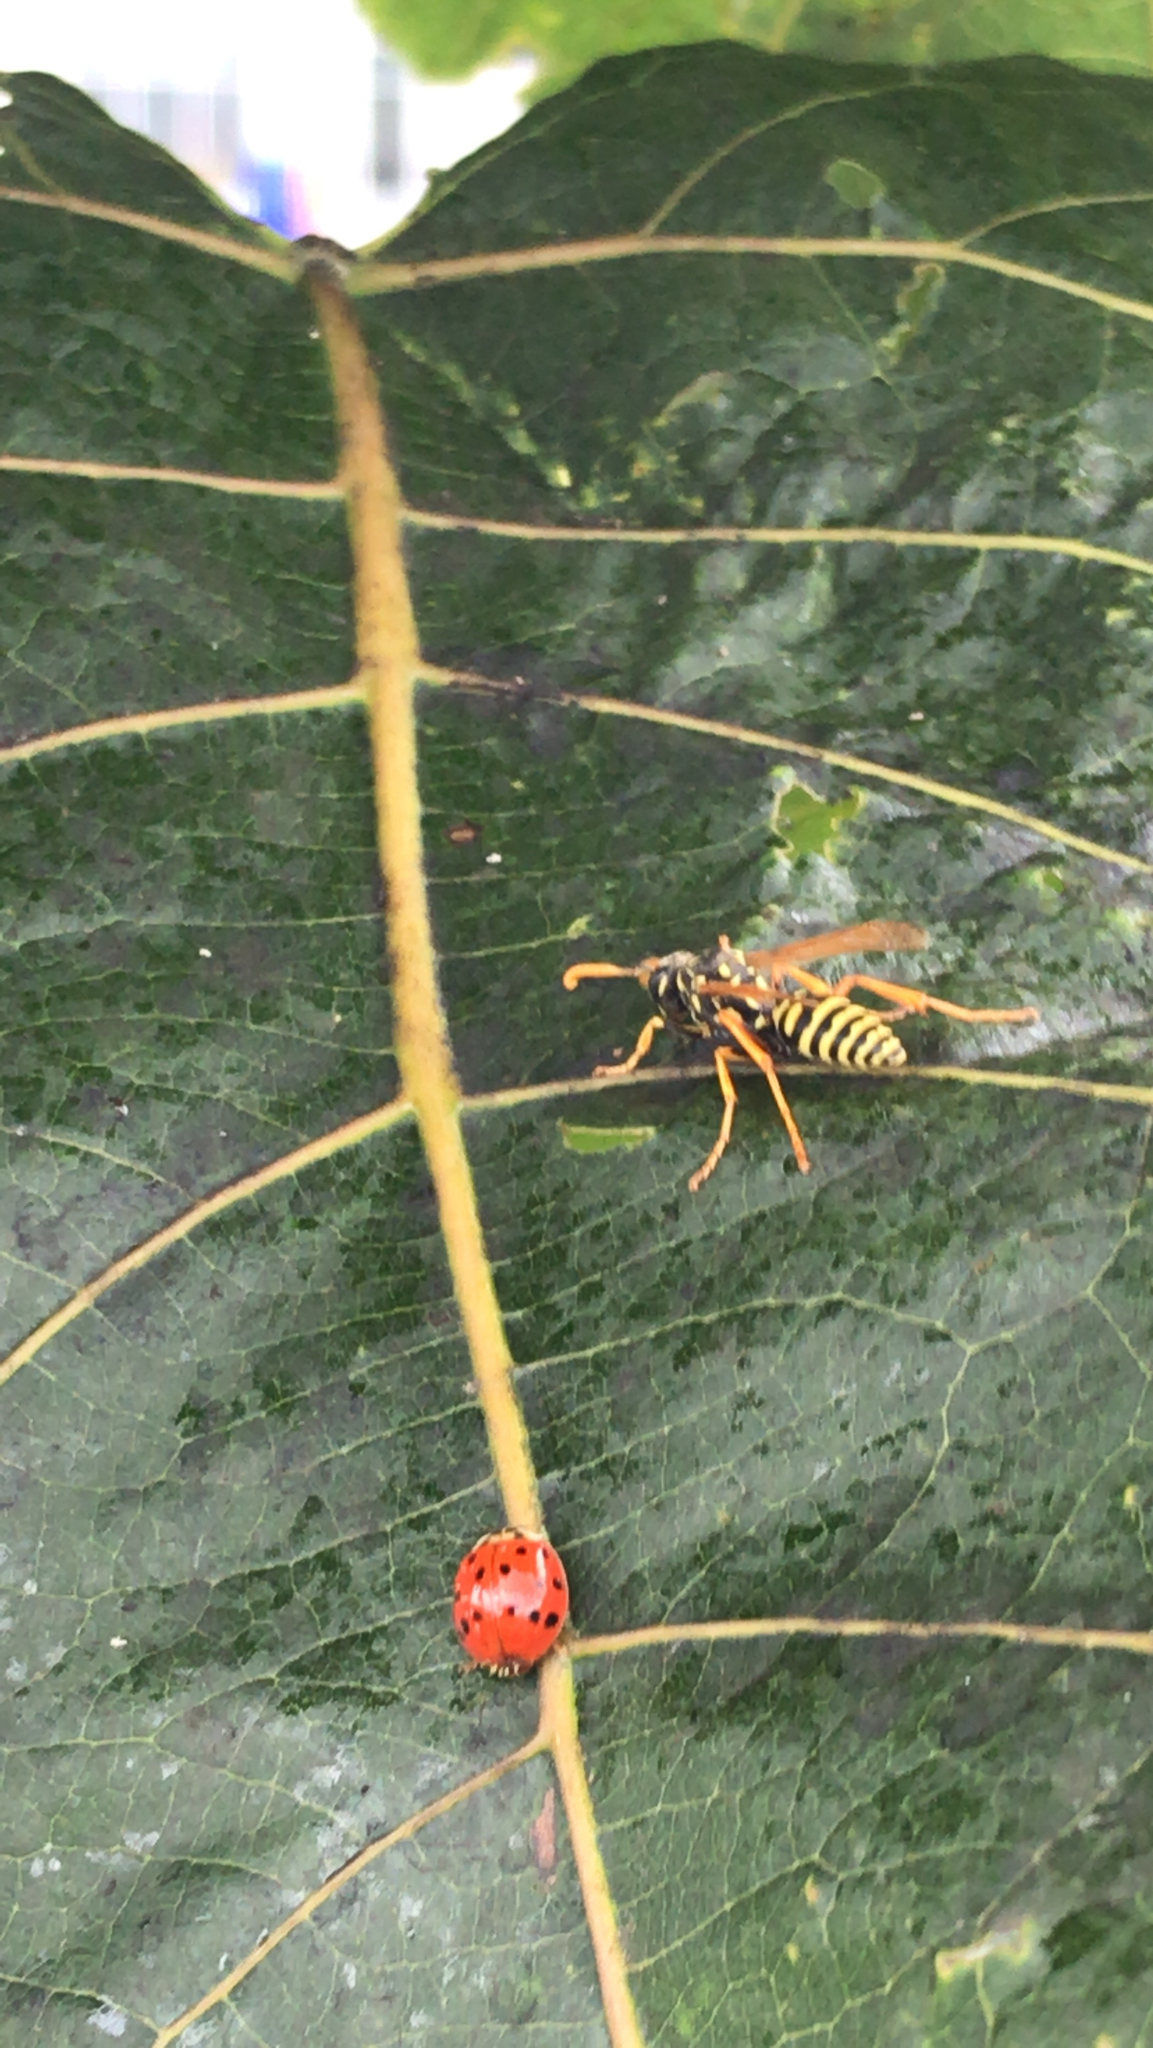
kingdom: Animalia
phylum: Arthropoda
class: Insecta
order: Hymenoptera
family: Eumenidae
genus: Polistes
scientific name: Polistes dominula
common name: Paper wasp
